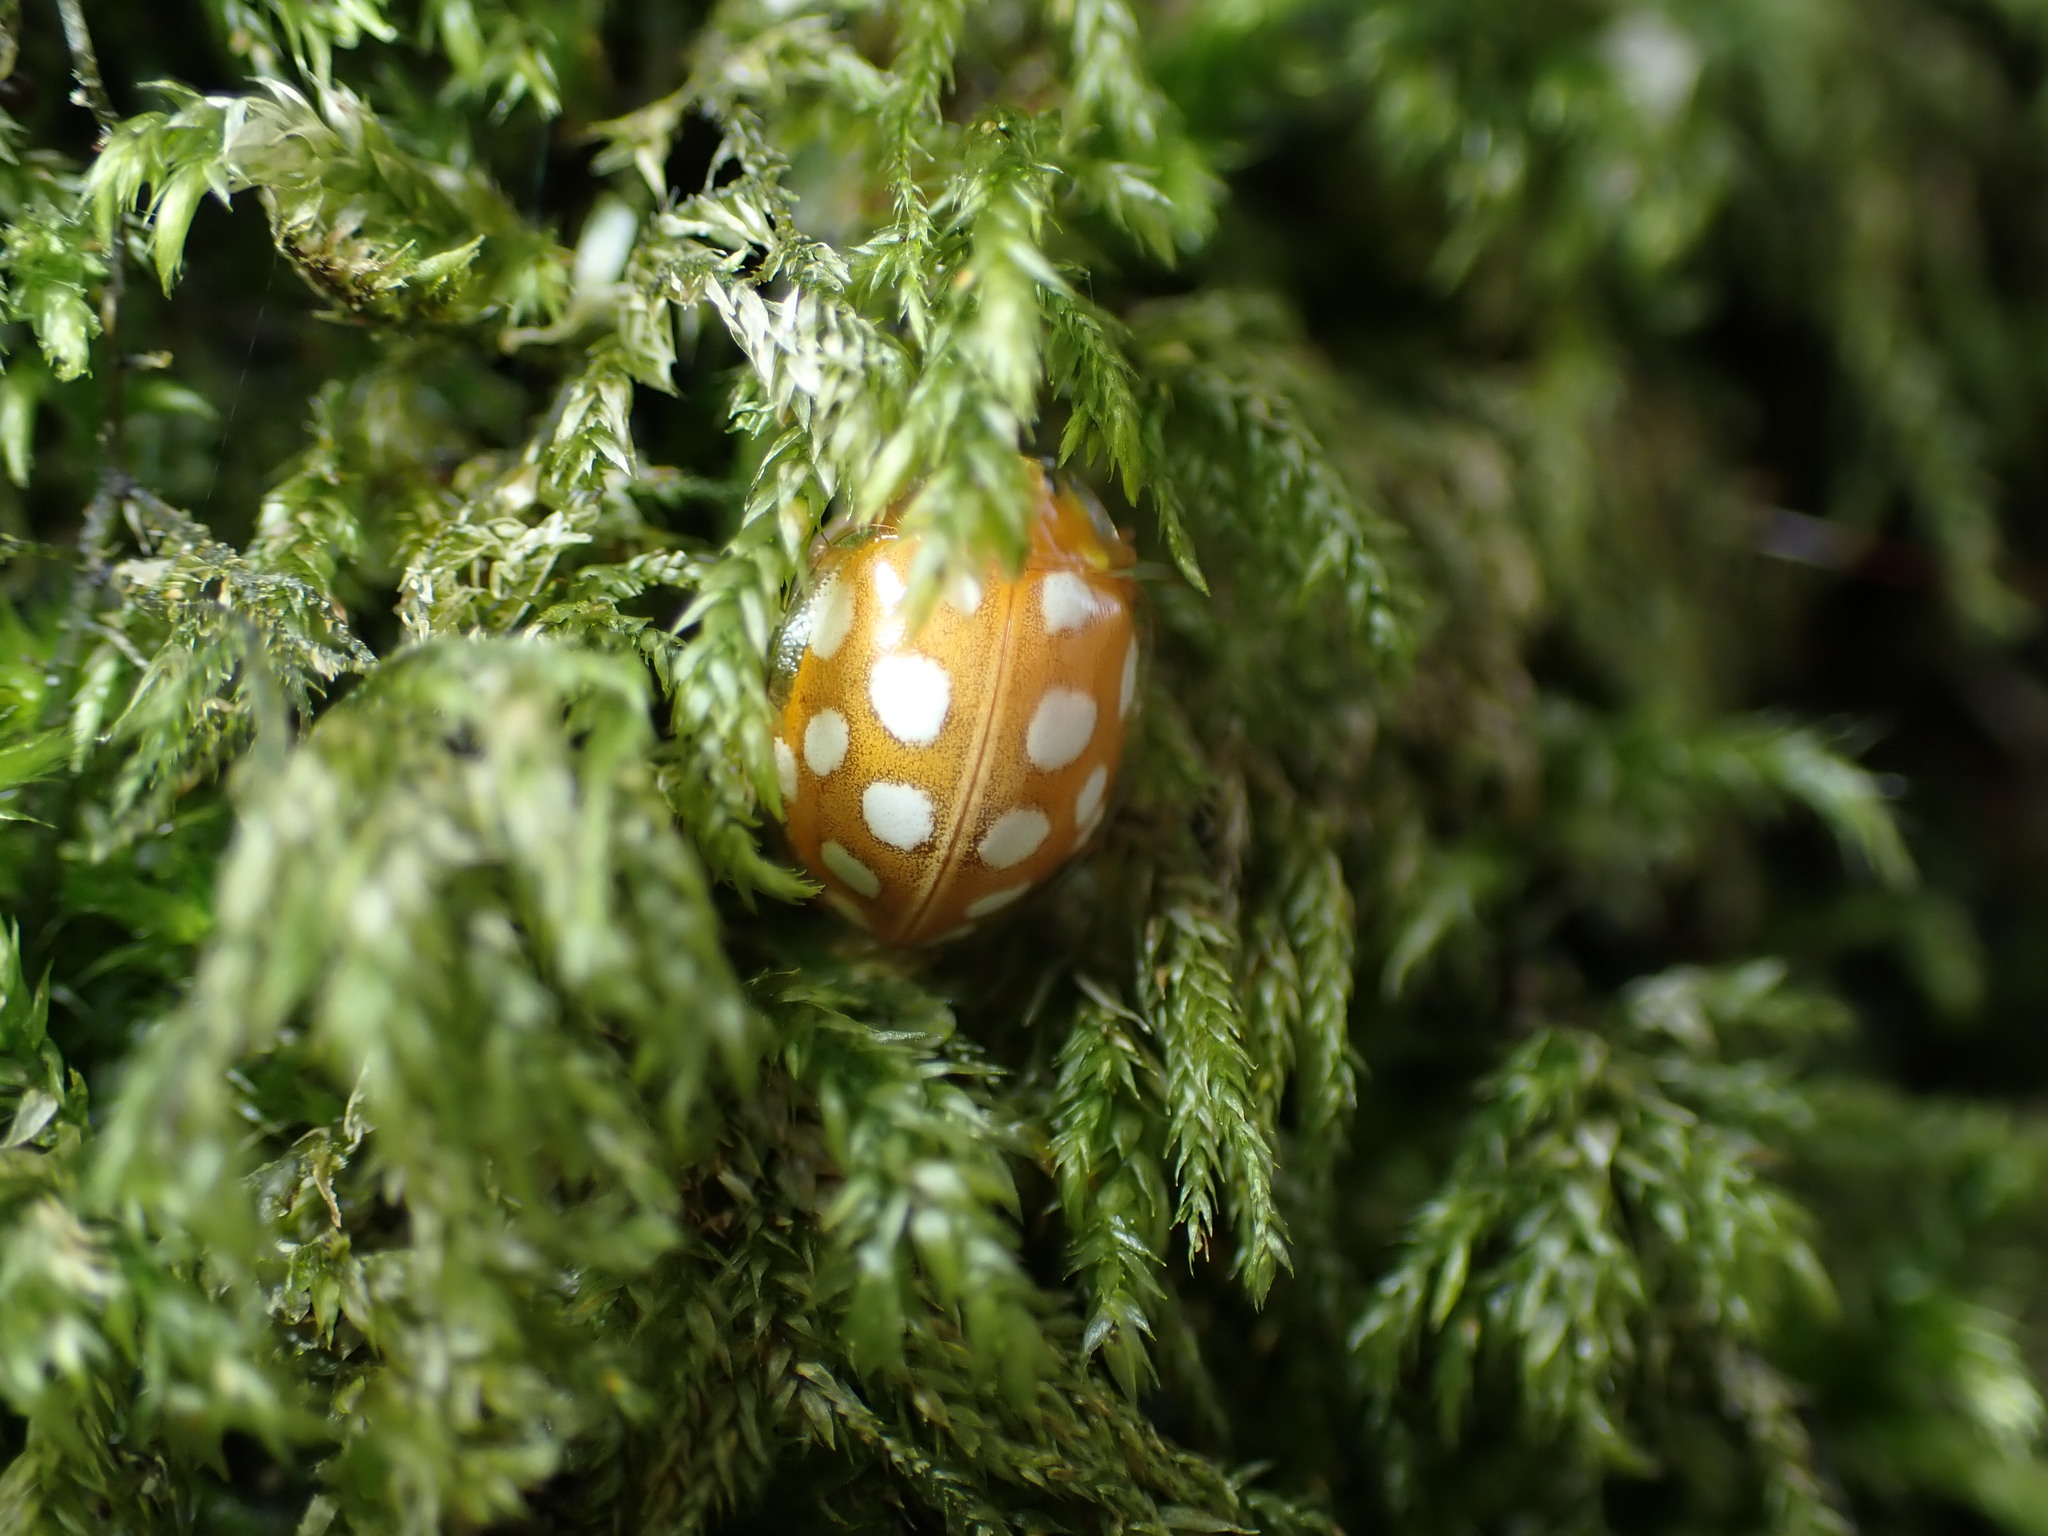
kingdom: Animalia
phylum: Arthropoda
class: Insecta
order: Coleoptera
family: Coccinellidae
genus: Halyzia
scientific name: Halyzia sedecimguttata
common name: Orange ladybird
